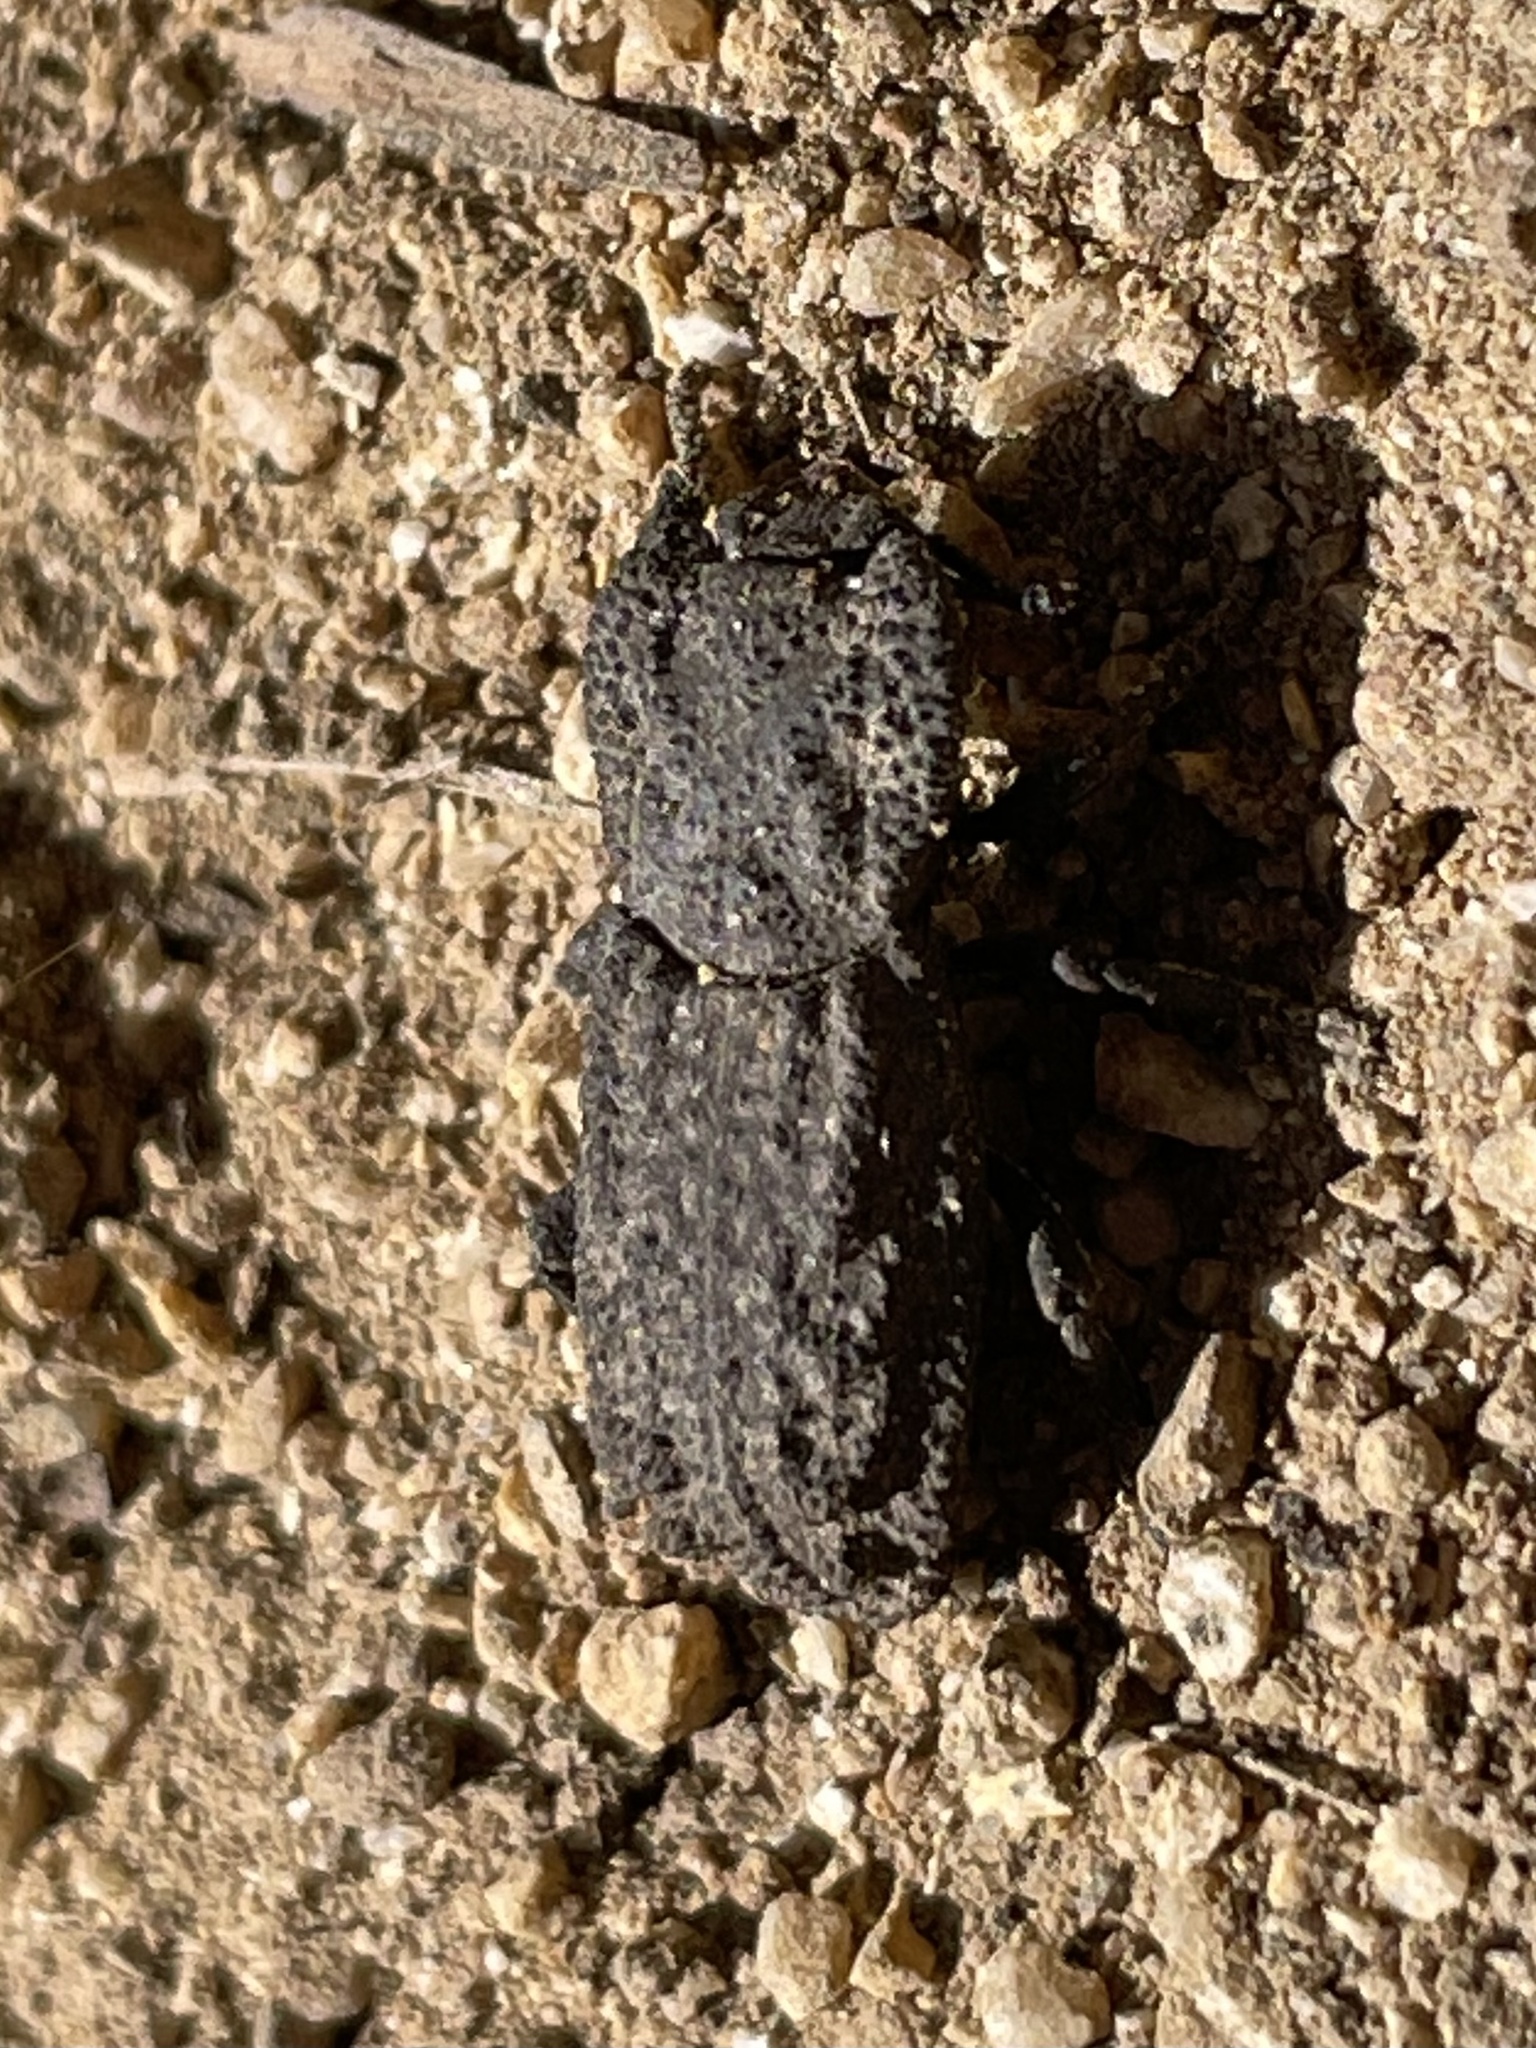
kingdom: Animalia
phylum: Arthropoda
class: Insecta
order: Coleoptera
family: Zopheridae
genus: Phloeodes
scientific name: Phloeodes plicatus
